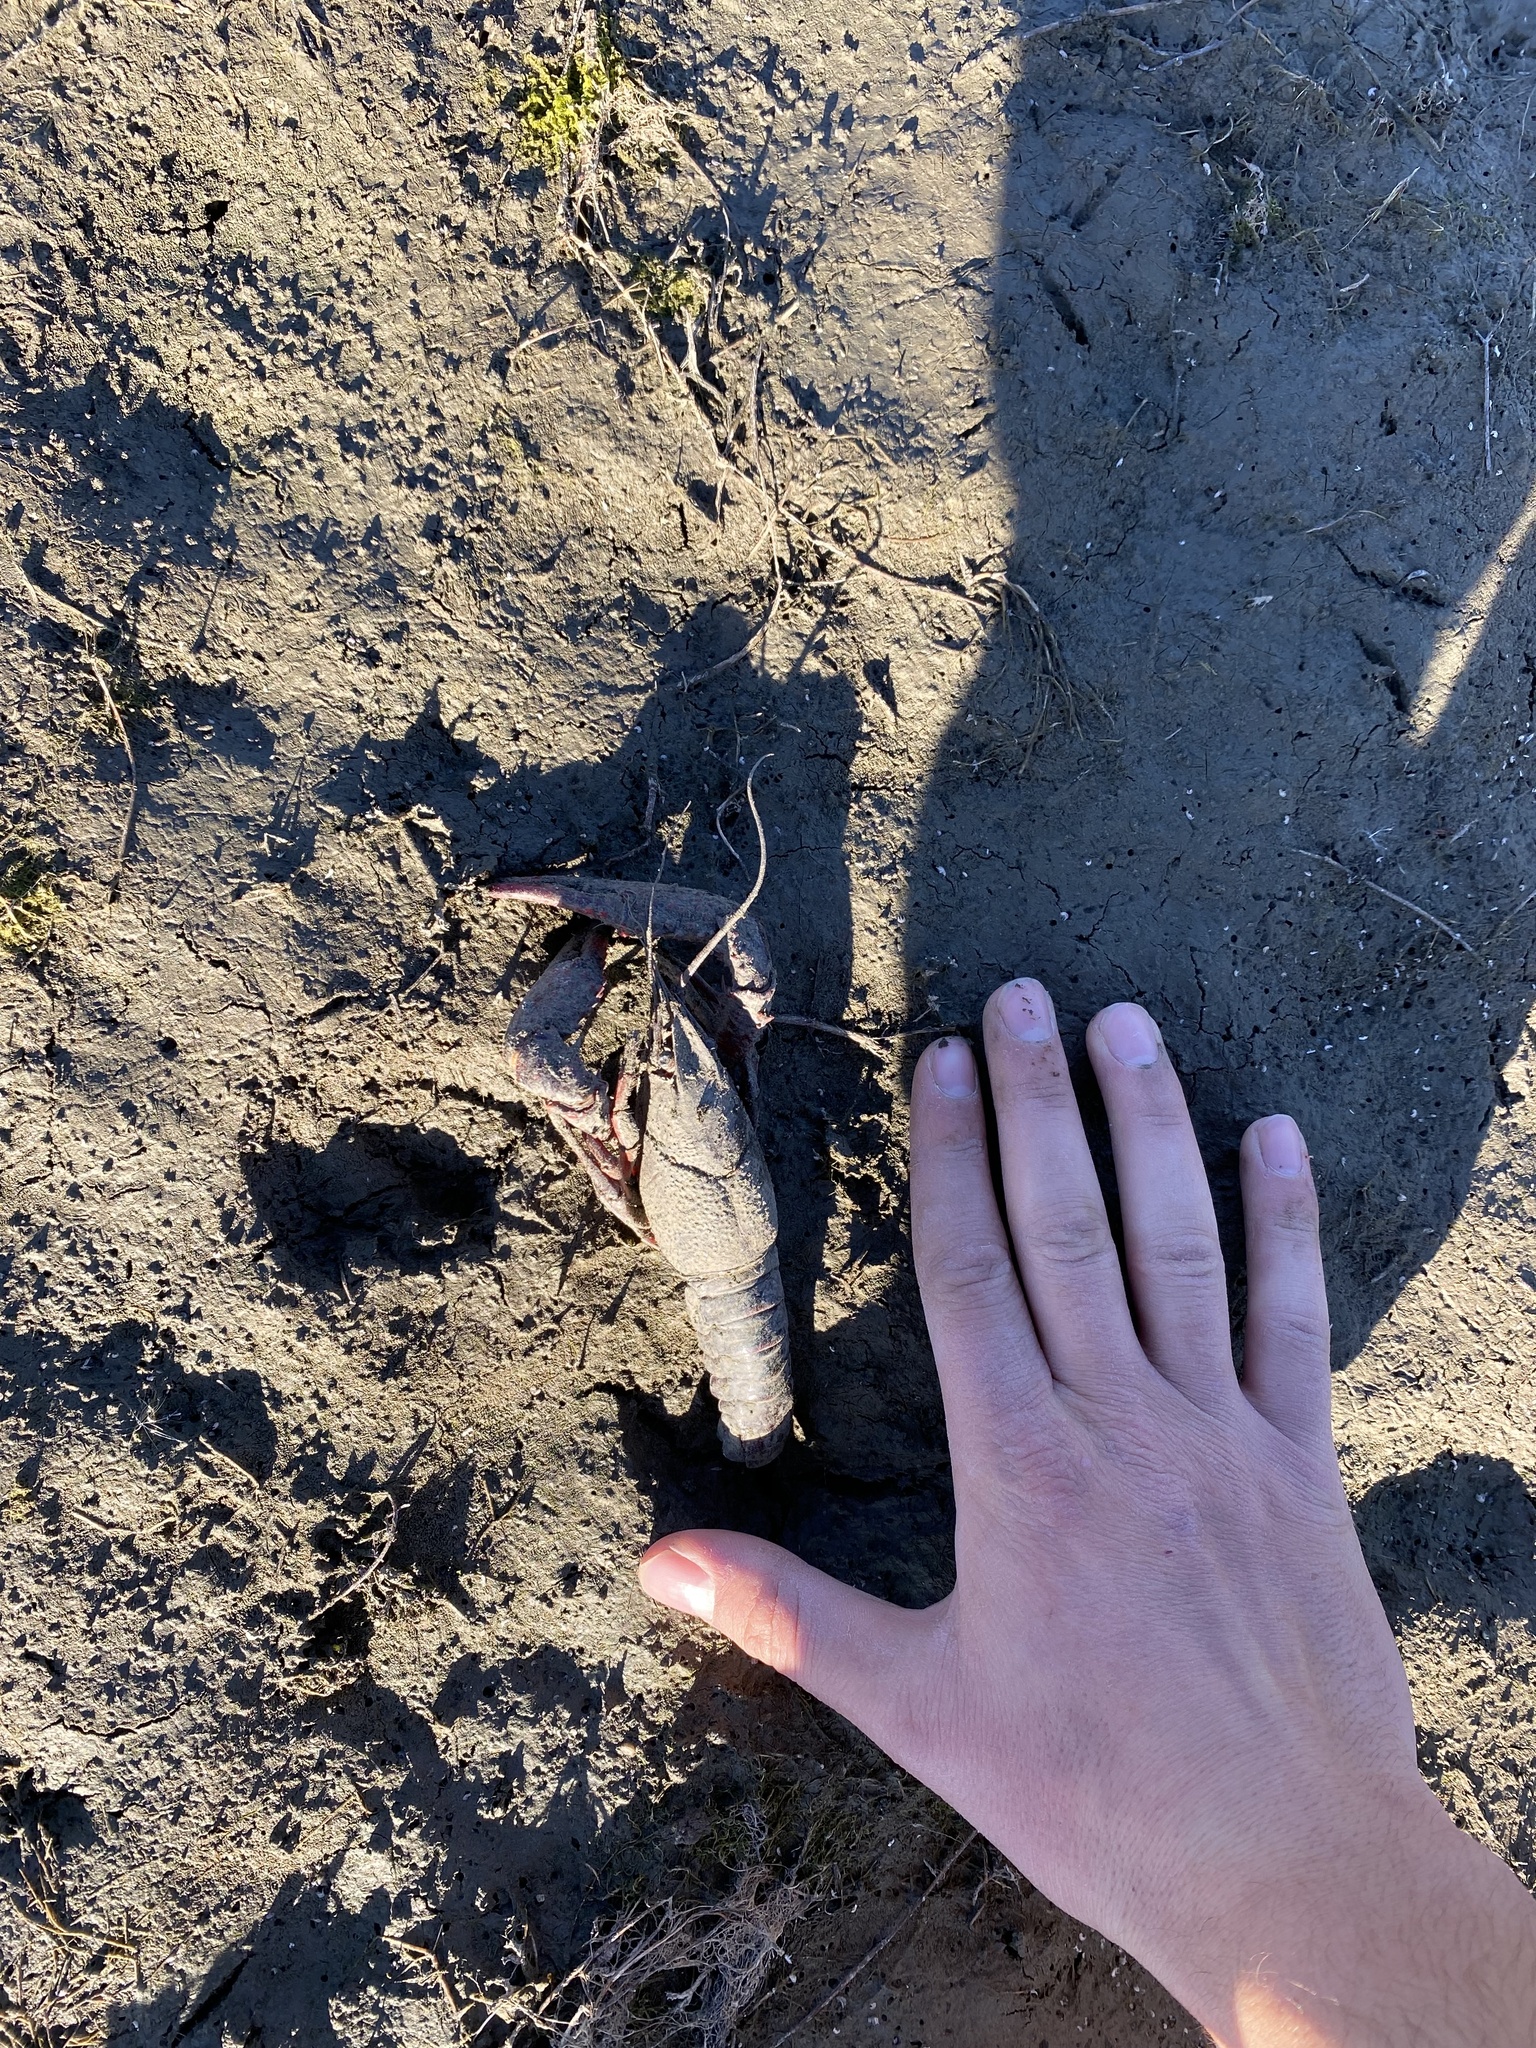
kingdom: Animalia
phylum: Arthropoda
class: Malacostraca
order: Decapoda
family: Cambaridae
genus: Procambarus
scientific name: Procambarus clarkii
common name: Red swamp crayfish
